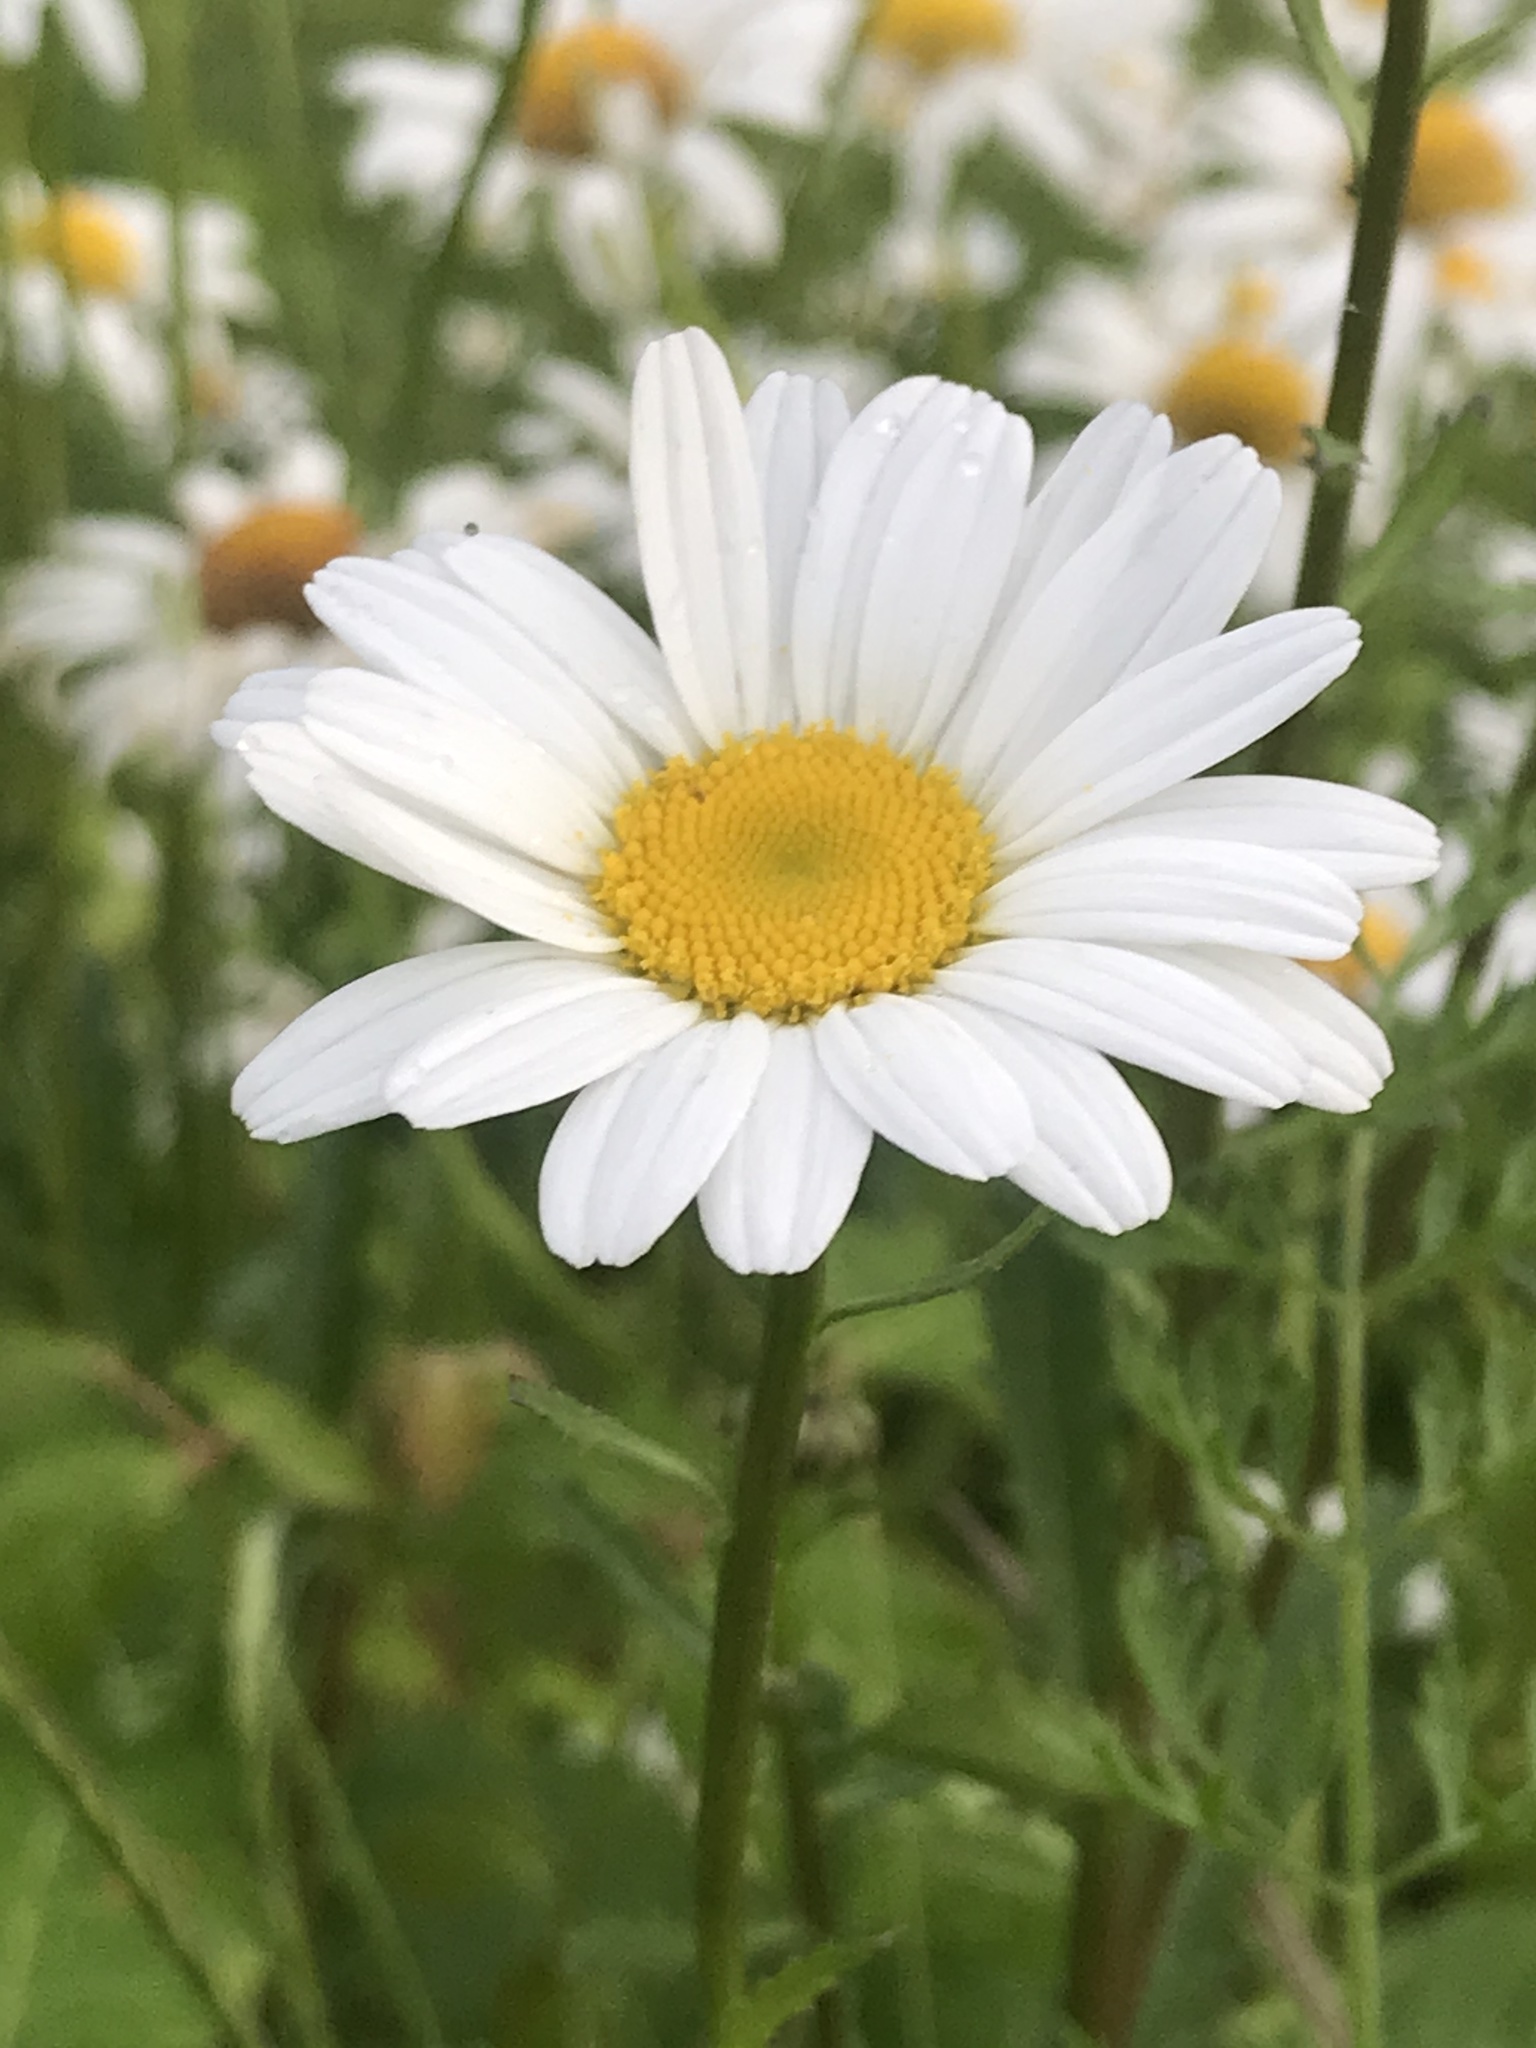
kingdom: Plantae
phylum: Tracheophyta
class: Magnoliopsida
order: Asterales
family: Asteraceae
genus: Leucanthemum
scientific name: Leucanthemum vulgare
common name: Oxeye daisy
